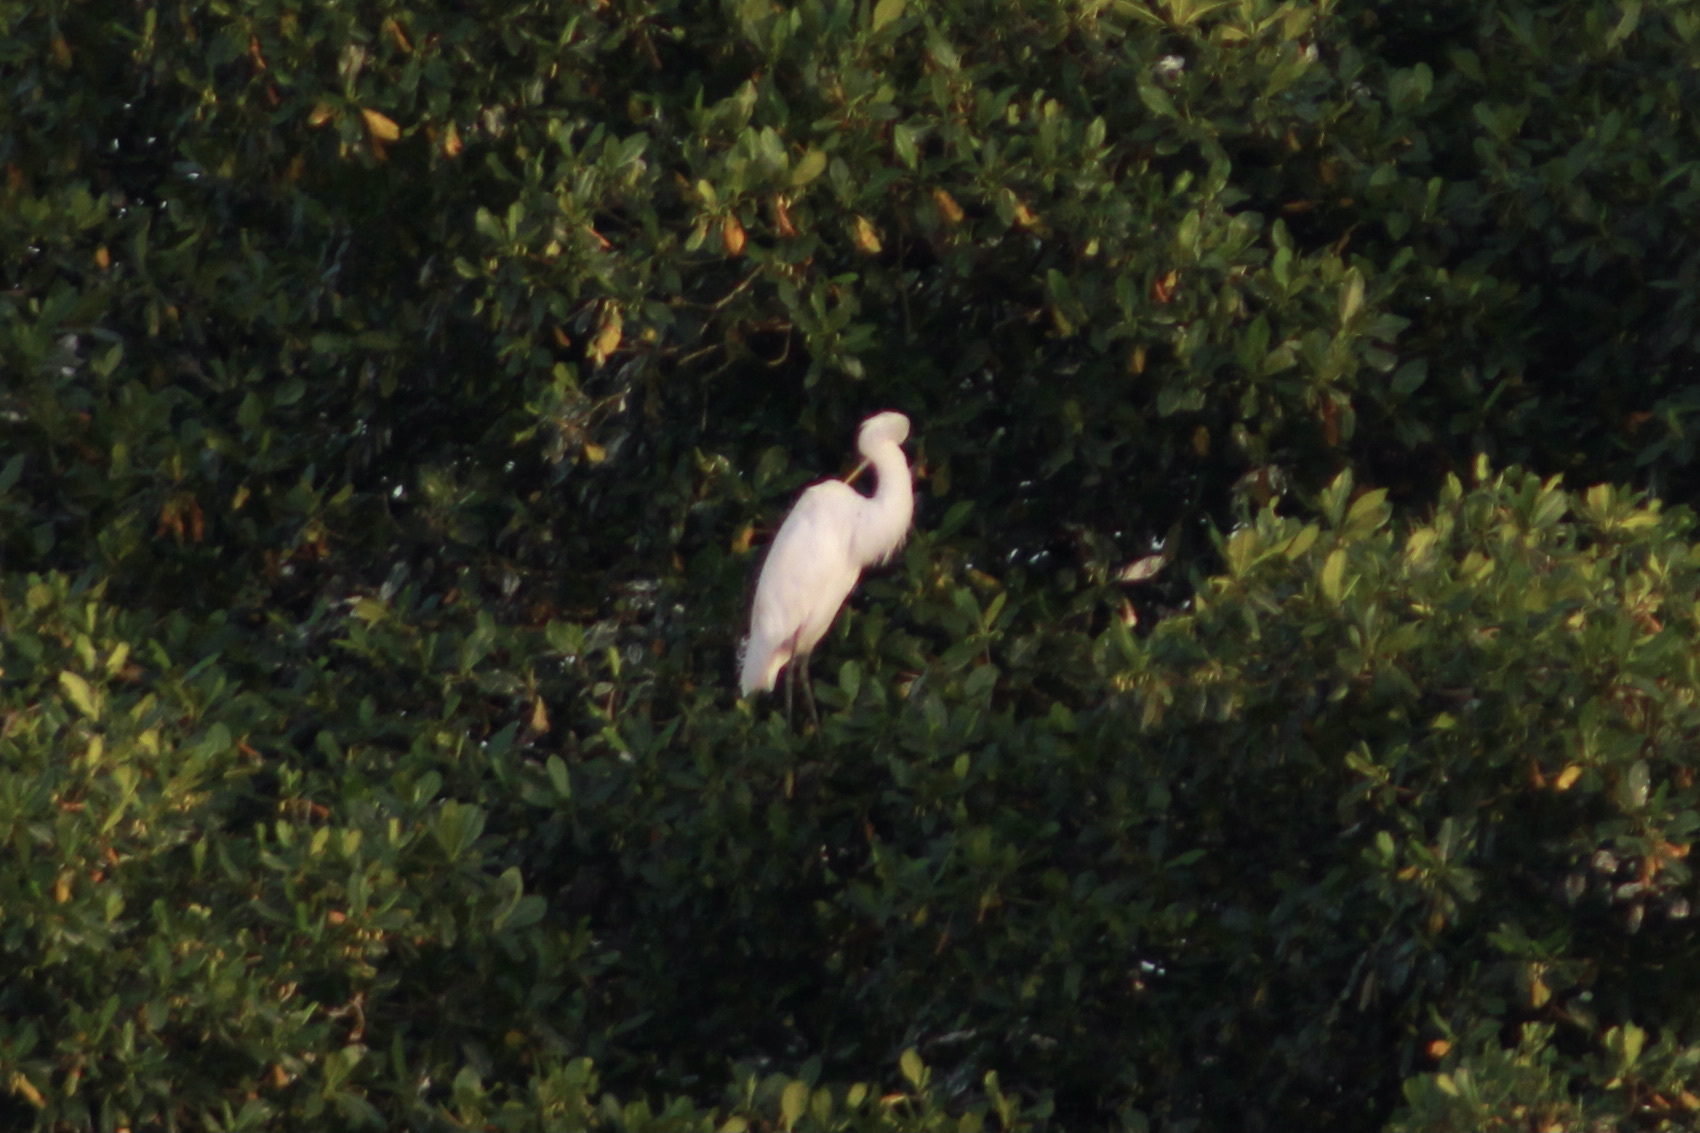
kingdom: Animalia
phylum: Chordata
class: Aves
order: Pelecaniformes
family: Ardeidae
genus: Ardea
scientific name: Ardea alba
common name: Great egret
